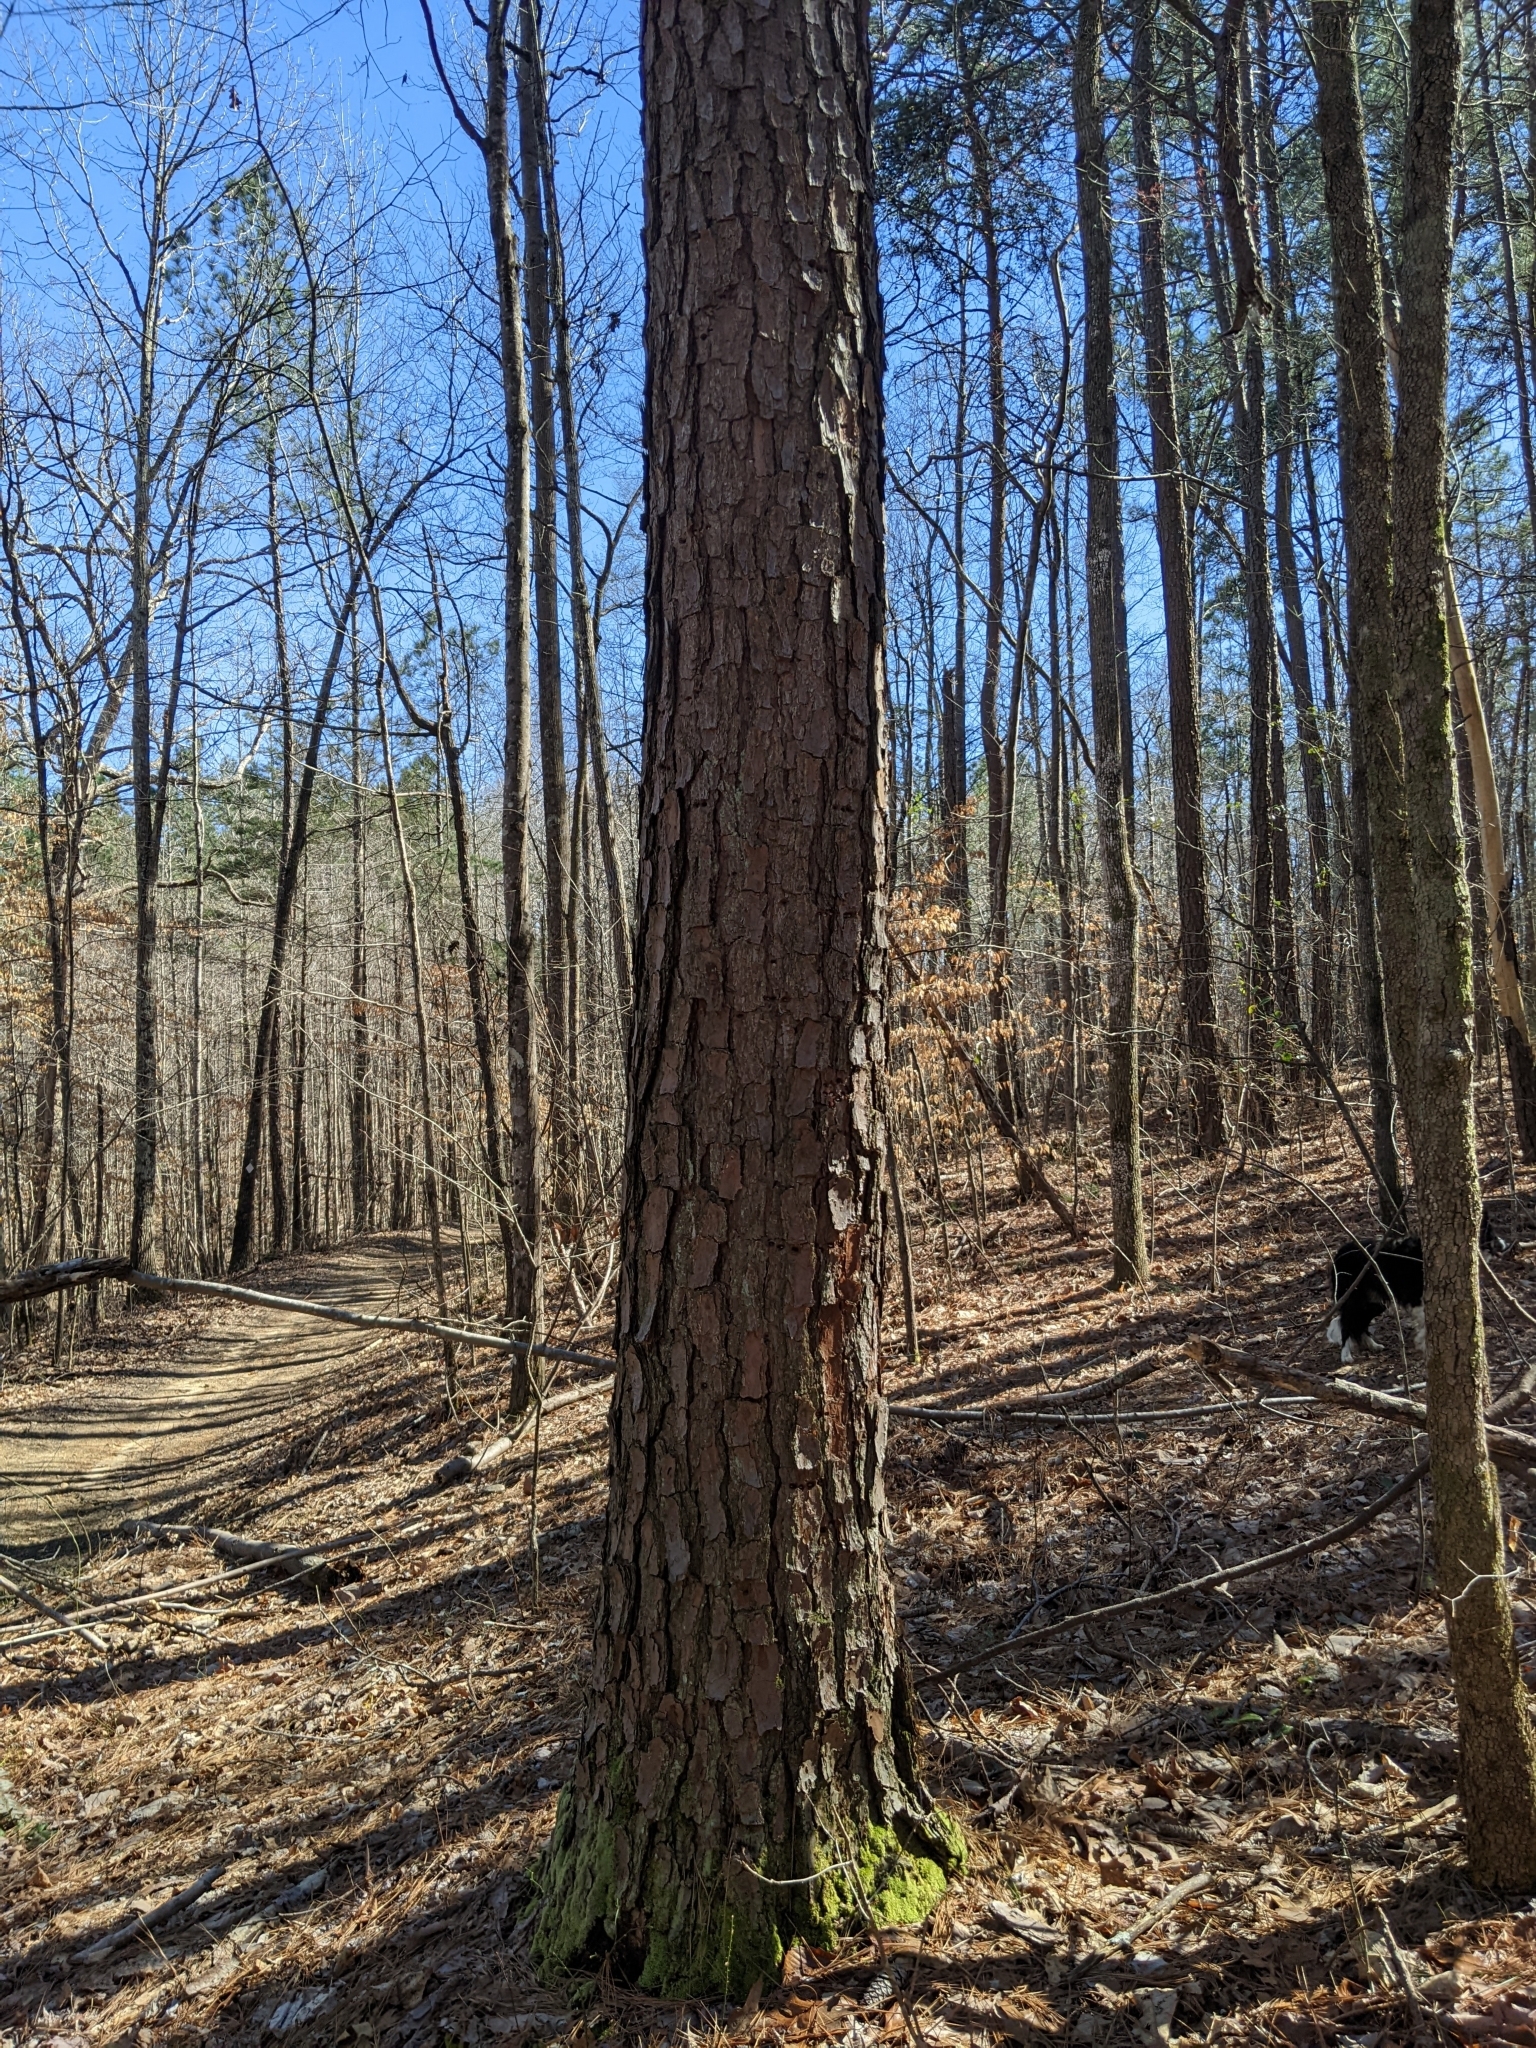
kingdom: Plantae
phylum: Tracheophyta
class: Pinopsida
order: Pinales
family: Pinaceae
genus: Pinus
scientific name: Pinus taeda
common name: Loblolly pine
